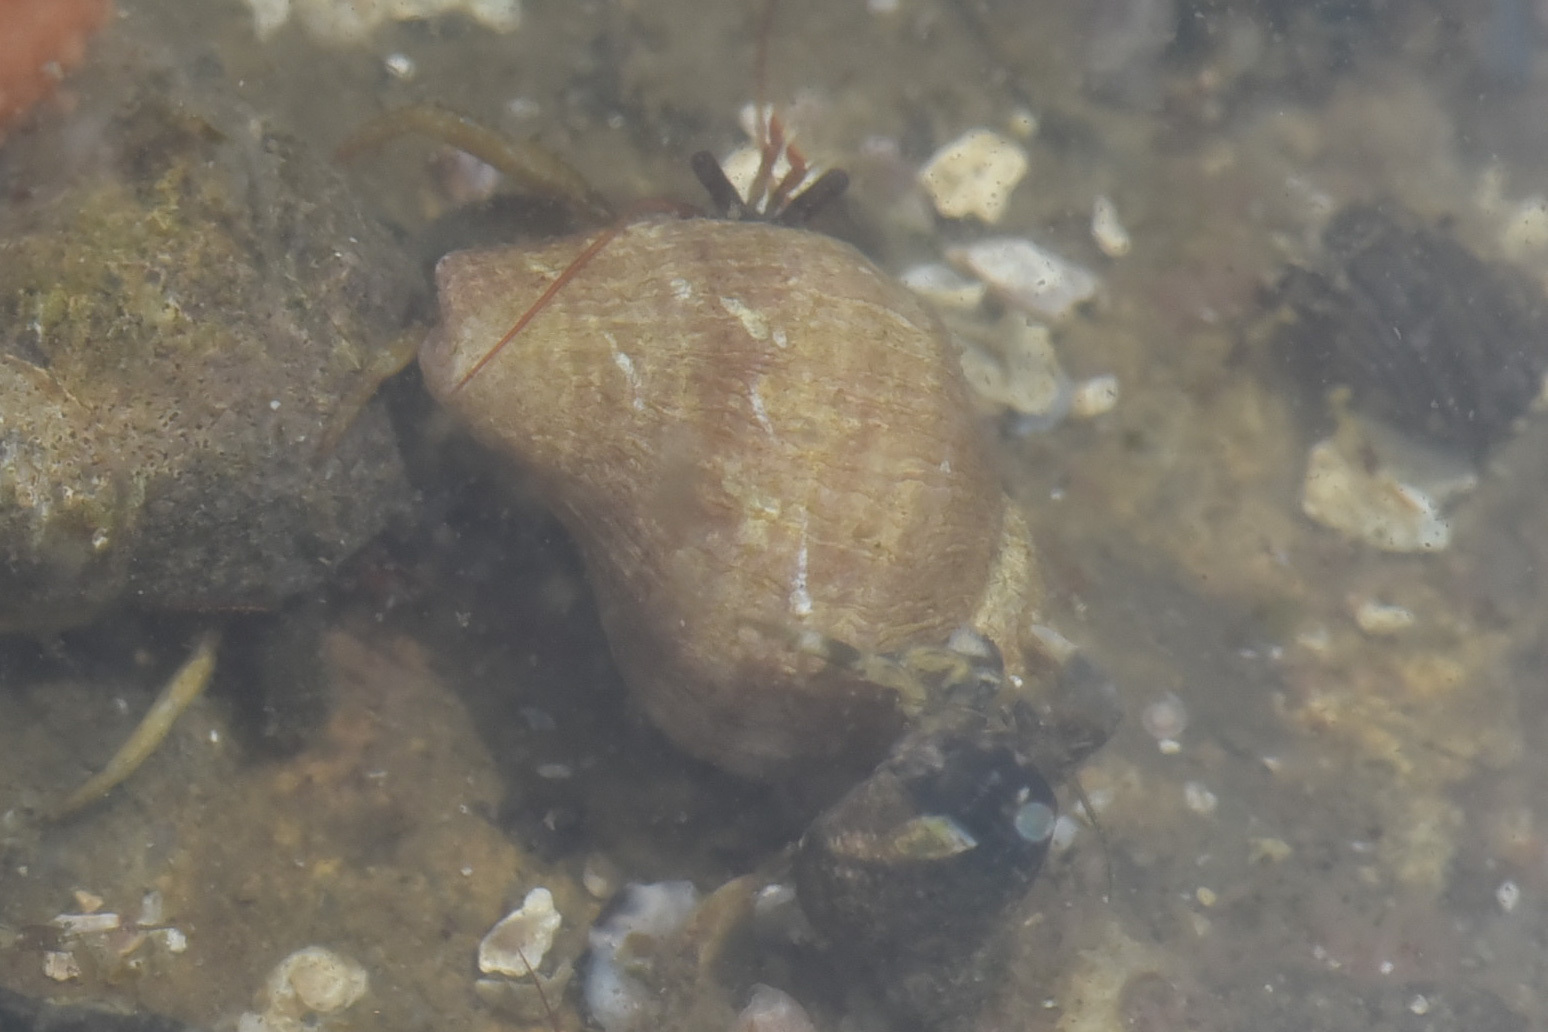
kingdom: Animalia
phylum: Arthropoda
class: Malacostraca
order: Decapoda
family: Paguridae
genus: Pagurus
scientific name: Pagurus granosimanus
